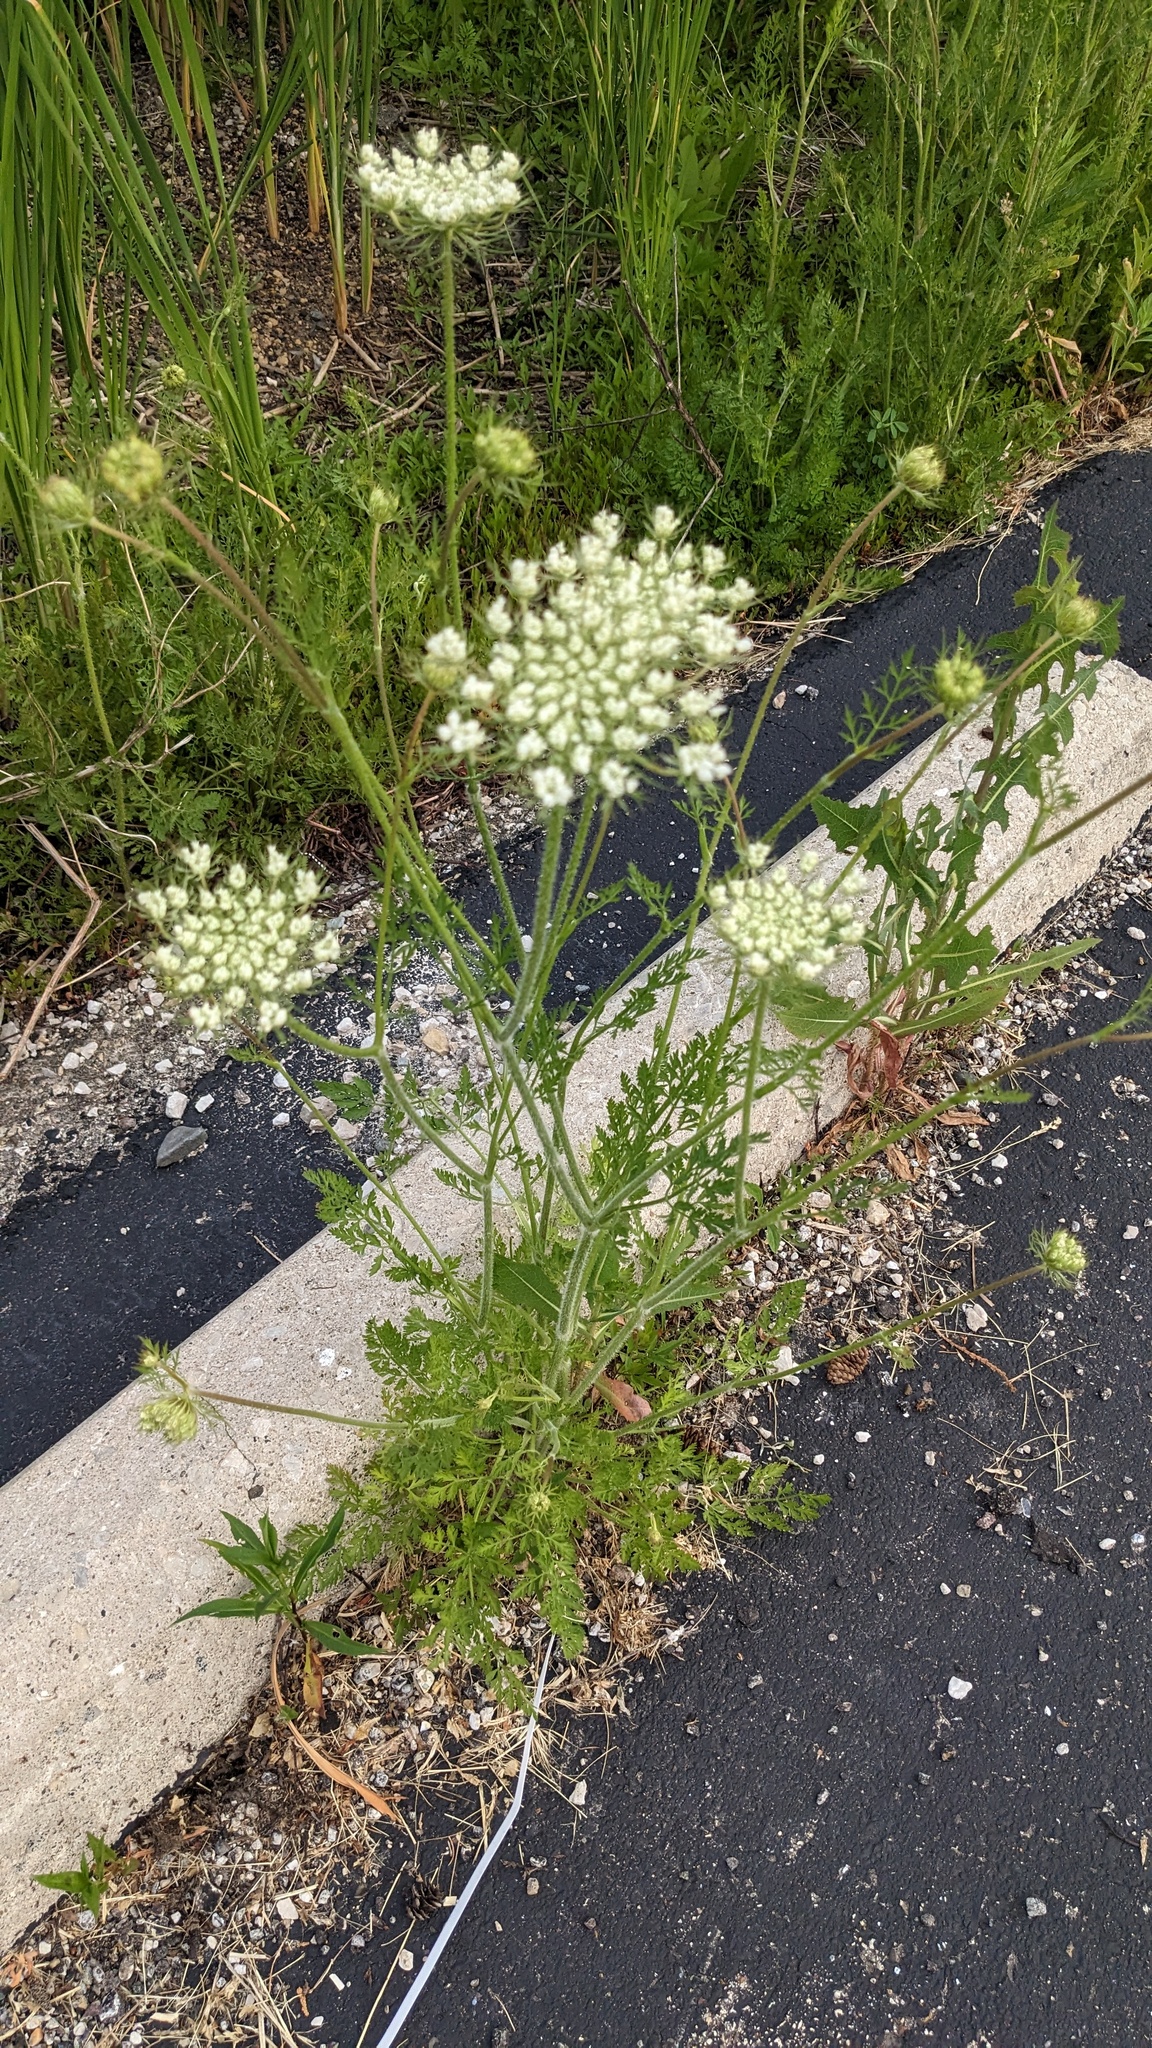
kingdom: Plantae
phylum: Tracheophyta
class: Magnoliopsida
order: Apiales
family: Apiaceae
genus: Daucus
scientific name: Daucus carota
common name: Wild carrot
